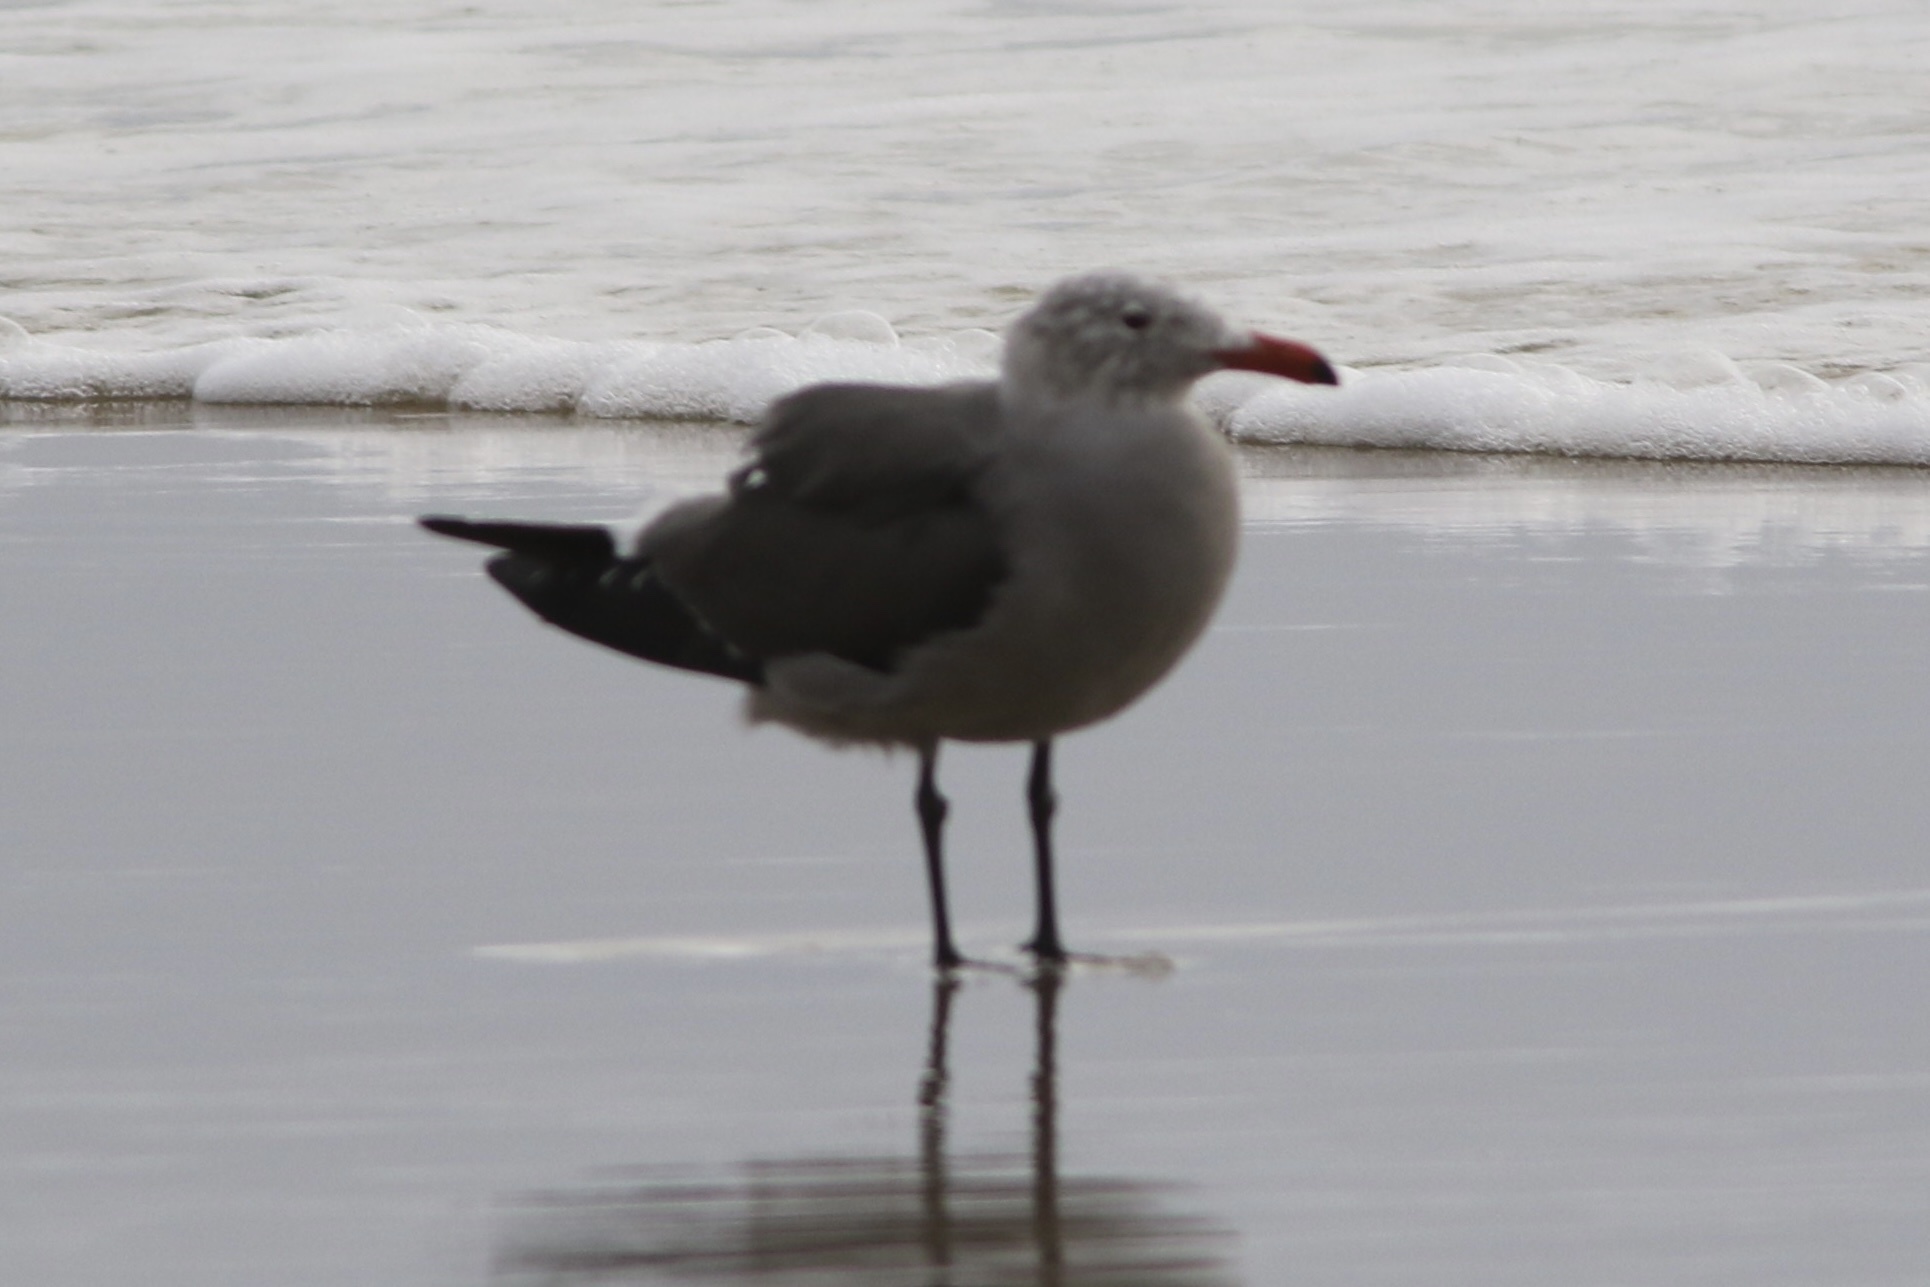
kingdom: Animalia
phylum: Chordata
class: Aves
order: Charadriiformes
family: Laridae
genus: Larus
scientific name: Larus heermanni
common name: Heermann's gull
